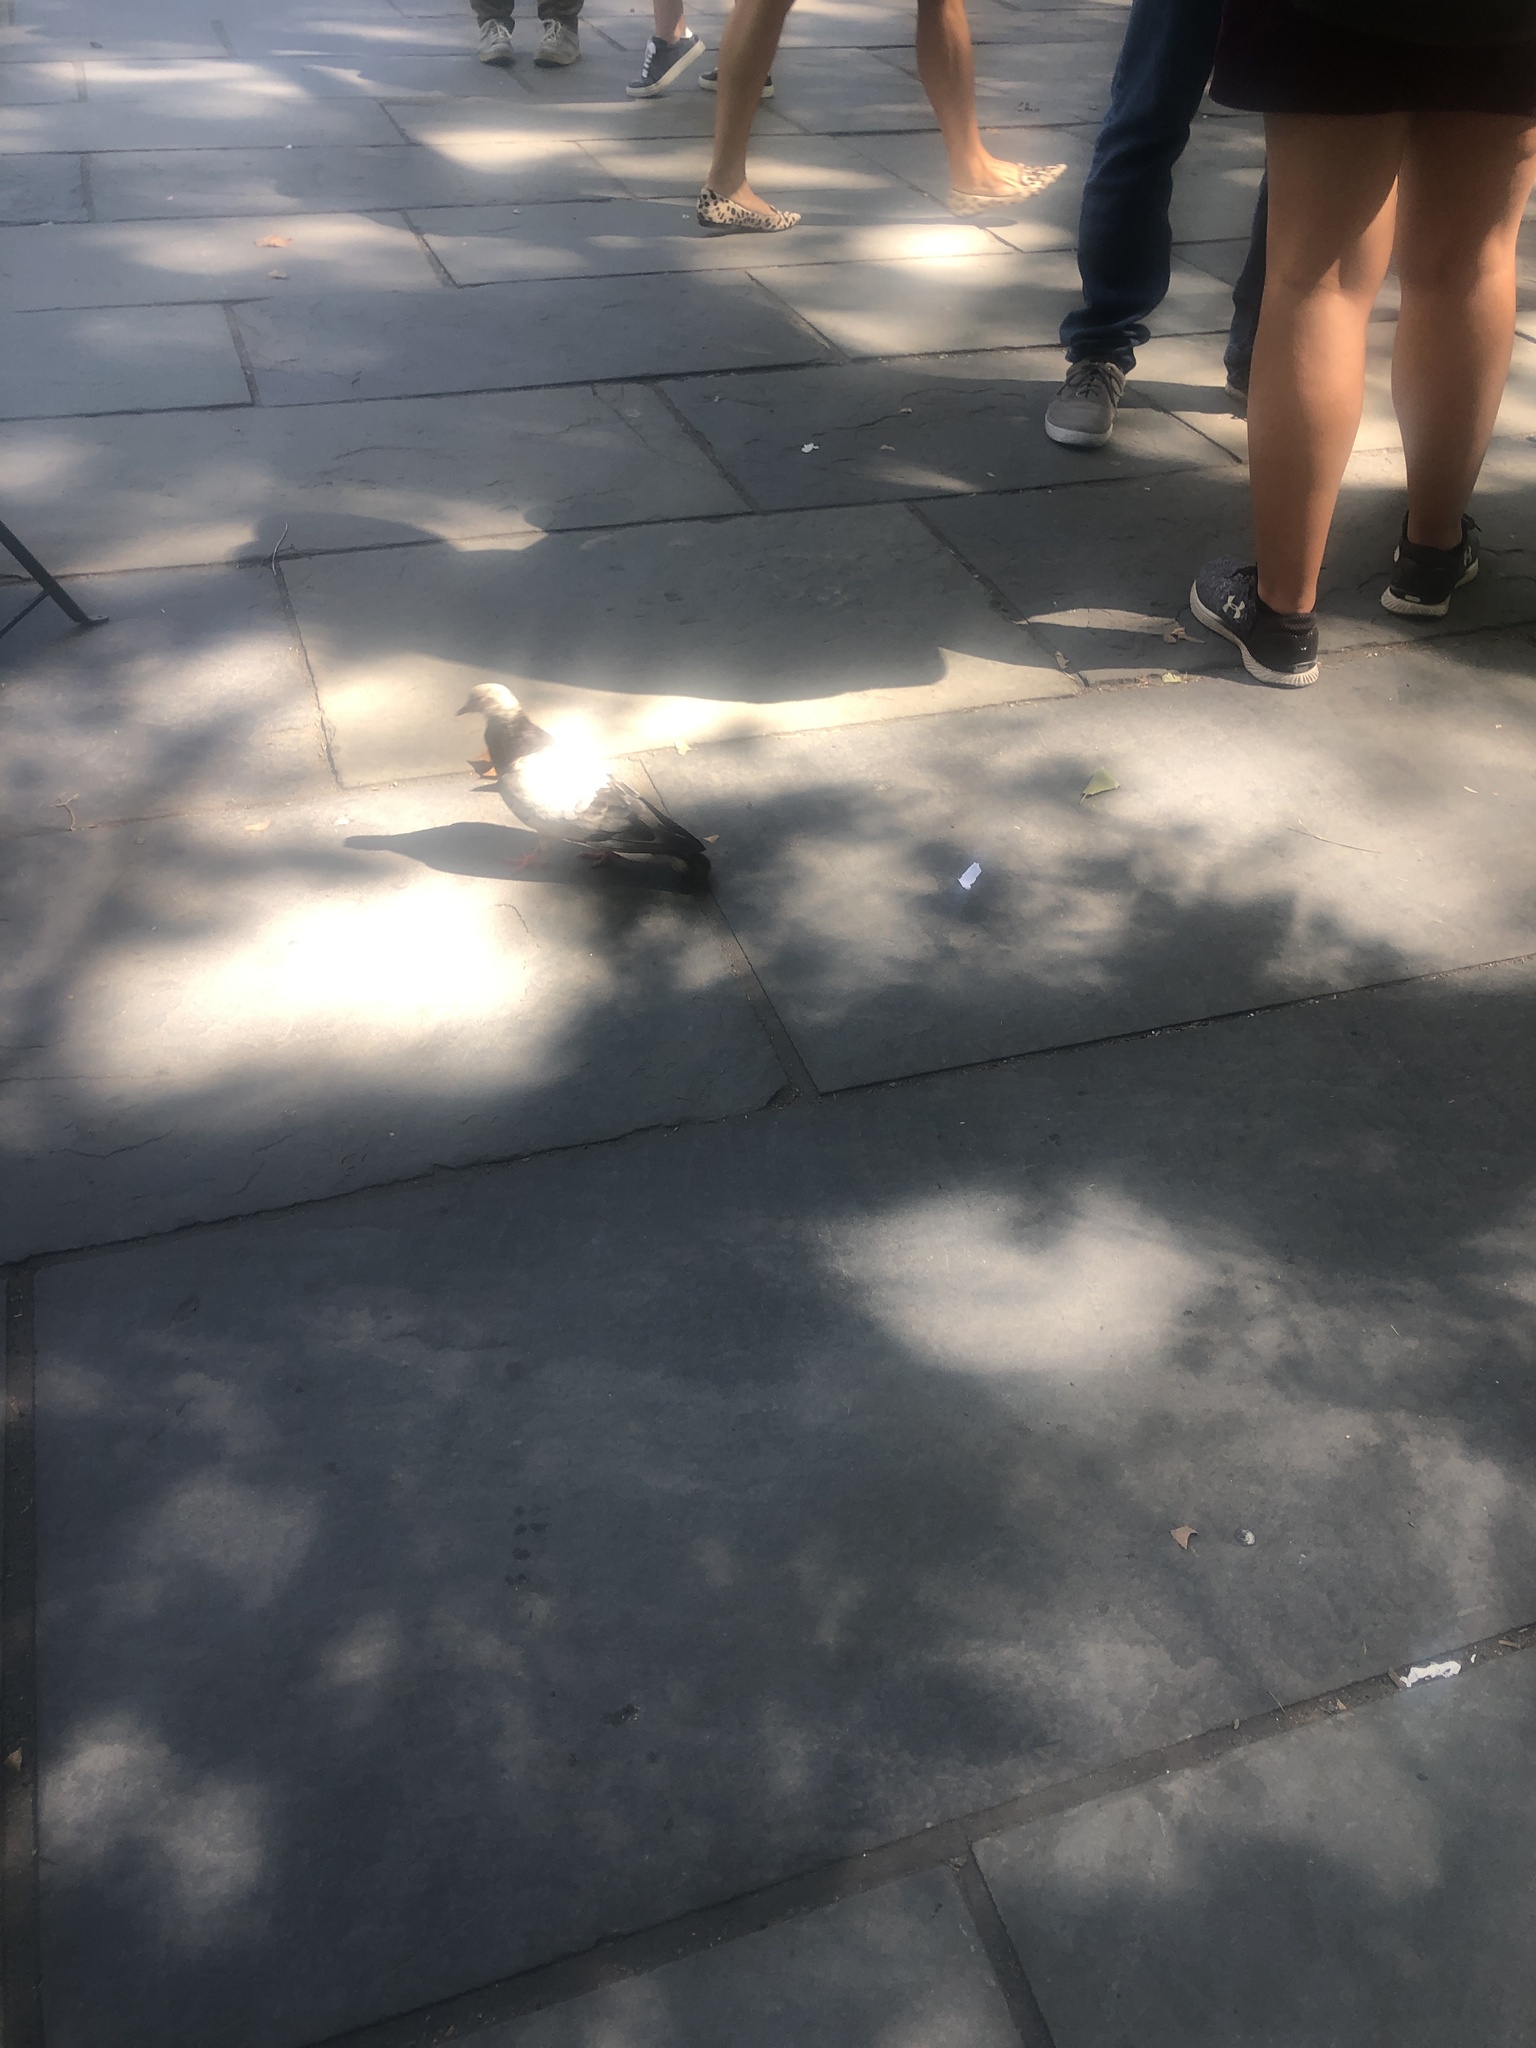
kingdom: Animalia
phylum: Chordata
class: Aves
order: Columbiformes
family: Columbidae
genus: Columba
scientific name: Columba livia
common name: Rock pigeon
